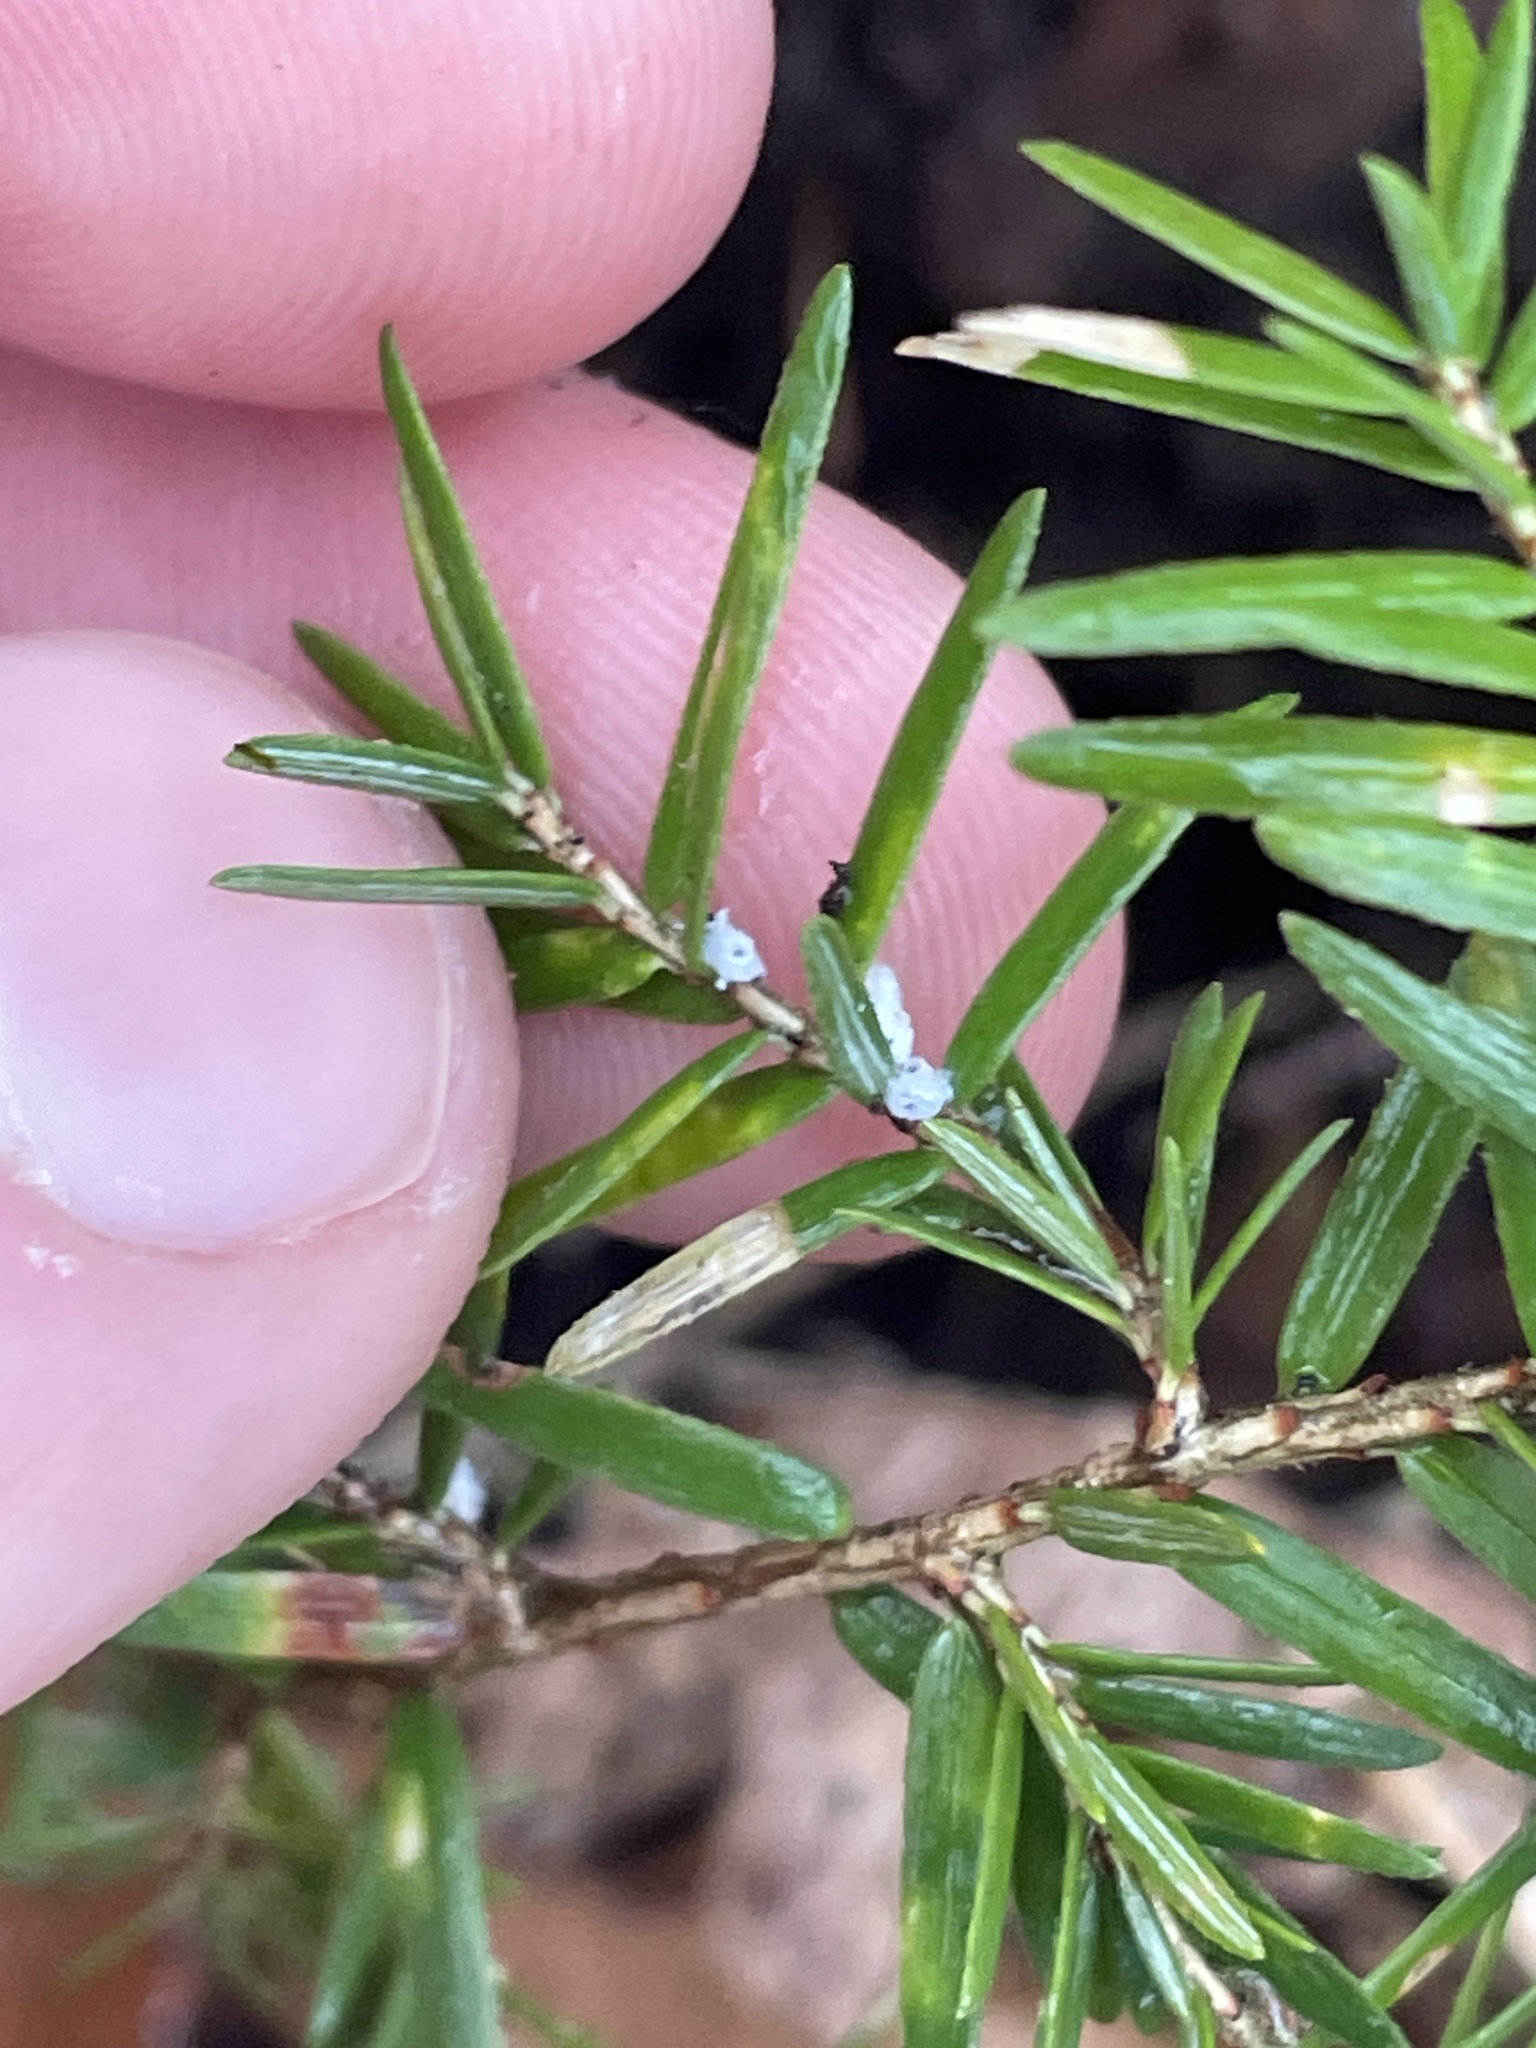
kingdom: Animalia
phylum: Arthropoda
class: Insecta
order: Hemiptera
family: Adelgidae
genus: Adelges
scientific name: Adelges tsugae
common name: Hemlock woolly adelgid
